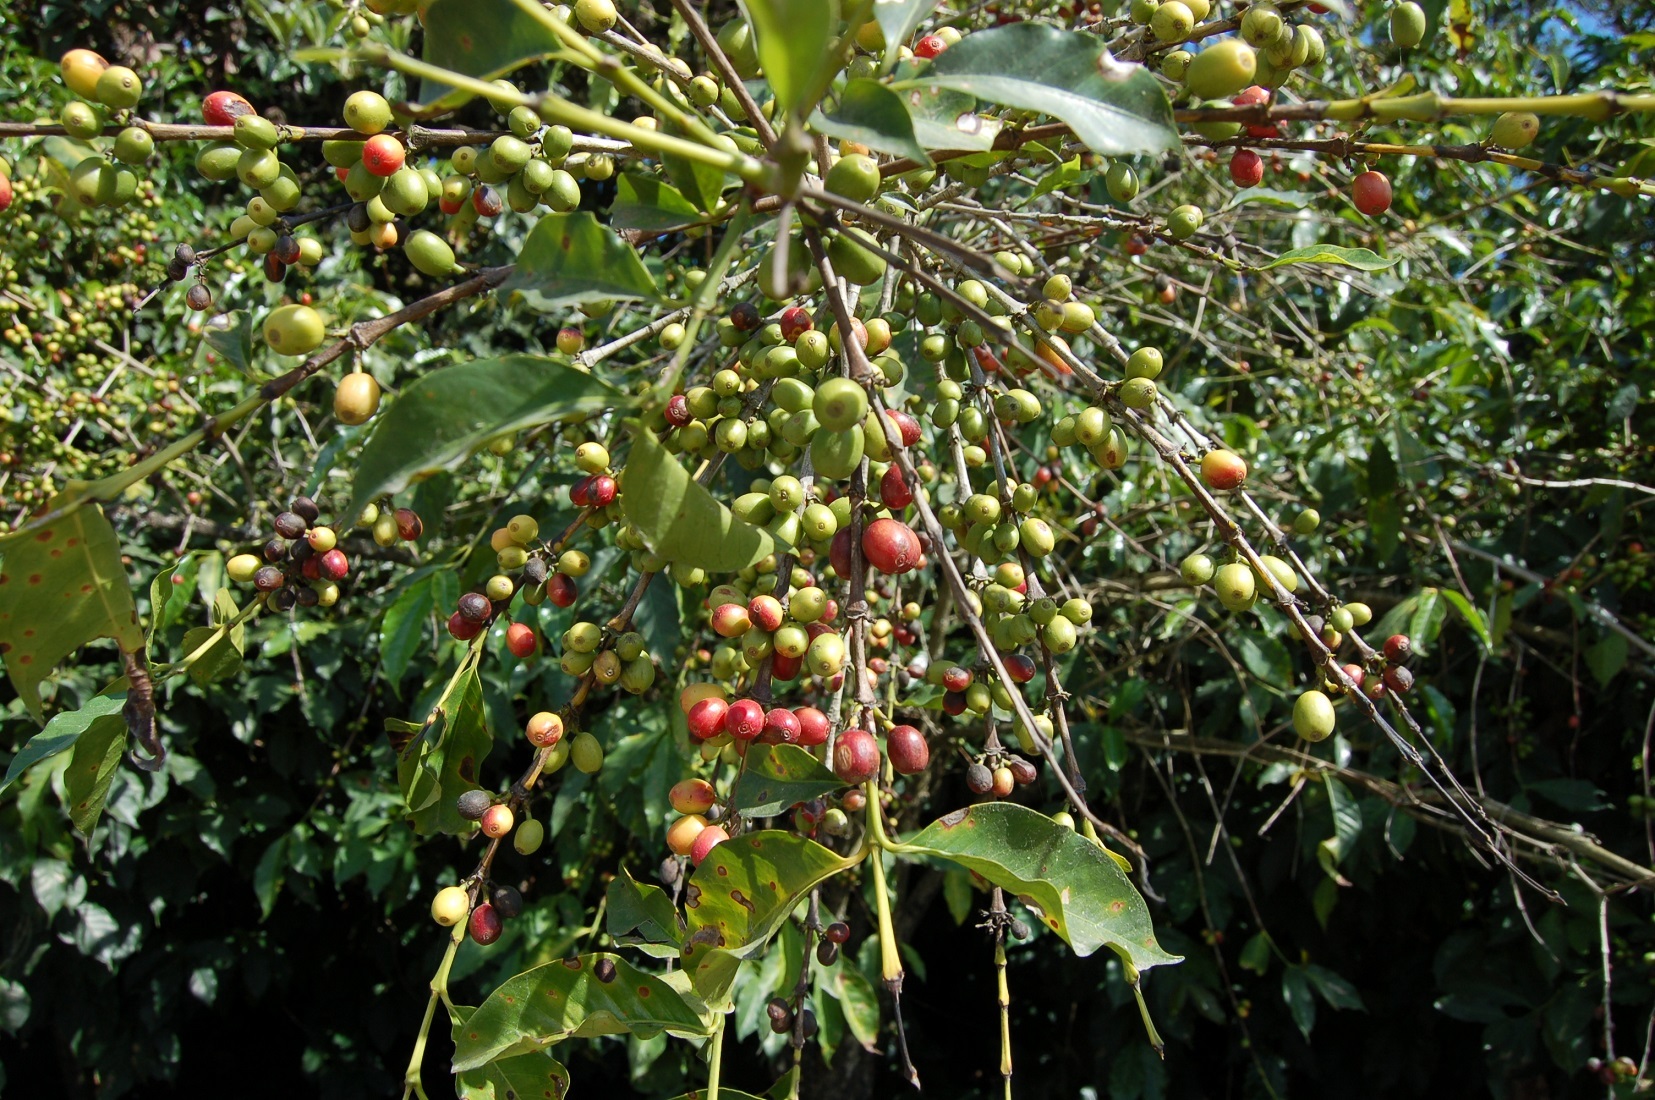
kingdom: Plantae
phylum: Tracheophyta
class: Magnoliopsida
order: Gentianales
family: Rubiaceae
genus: Coffea
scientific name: Coffea arabica
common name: Coffee
